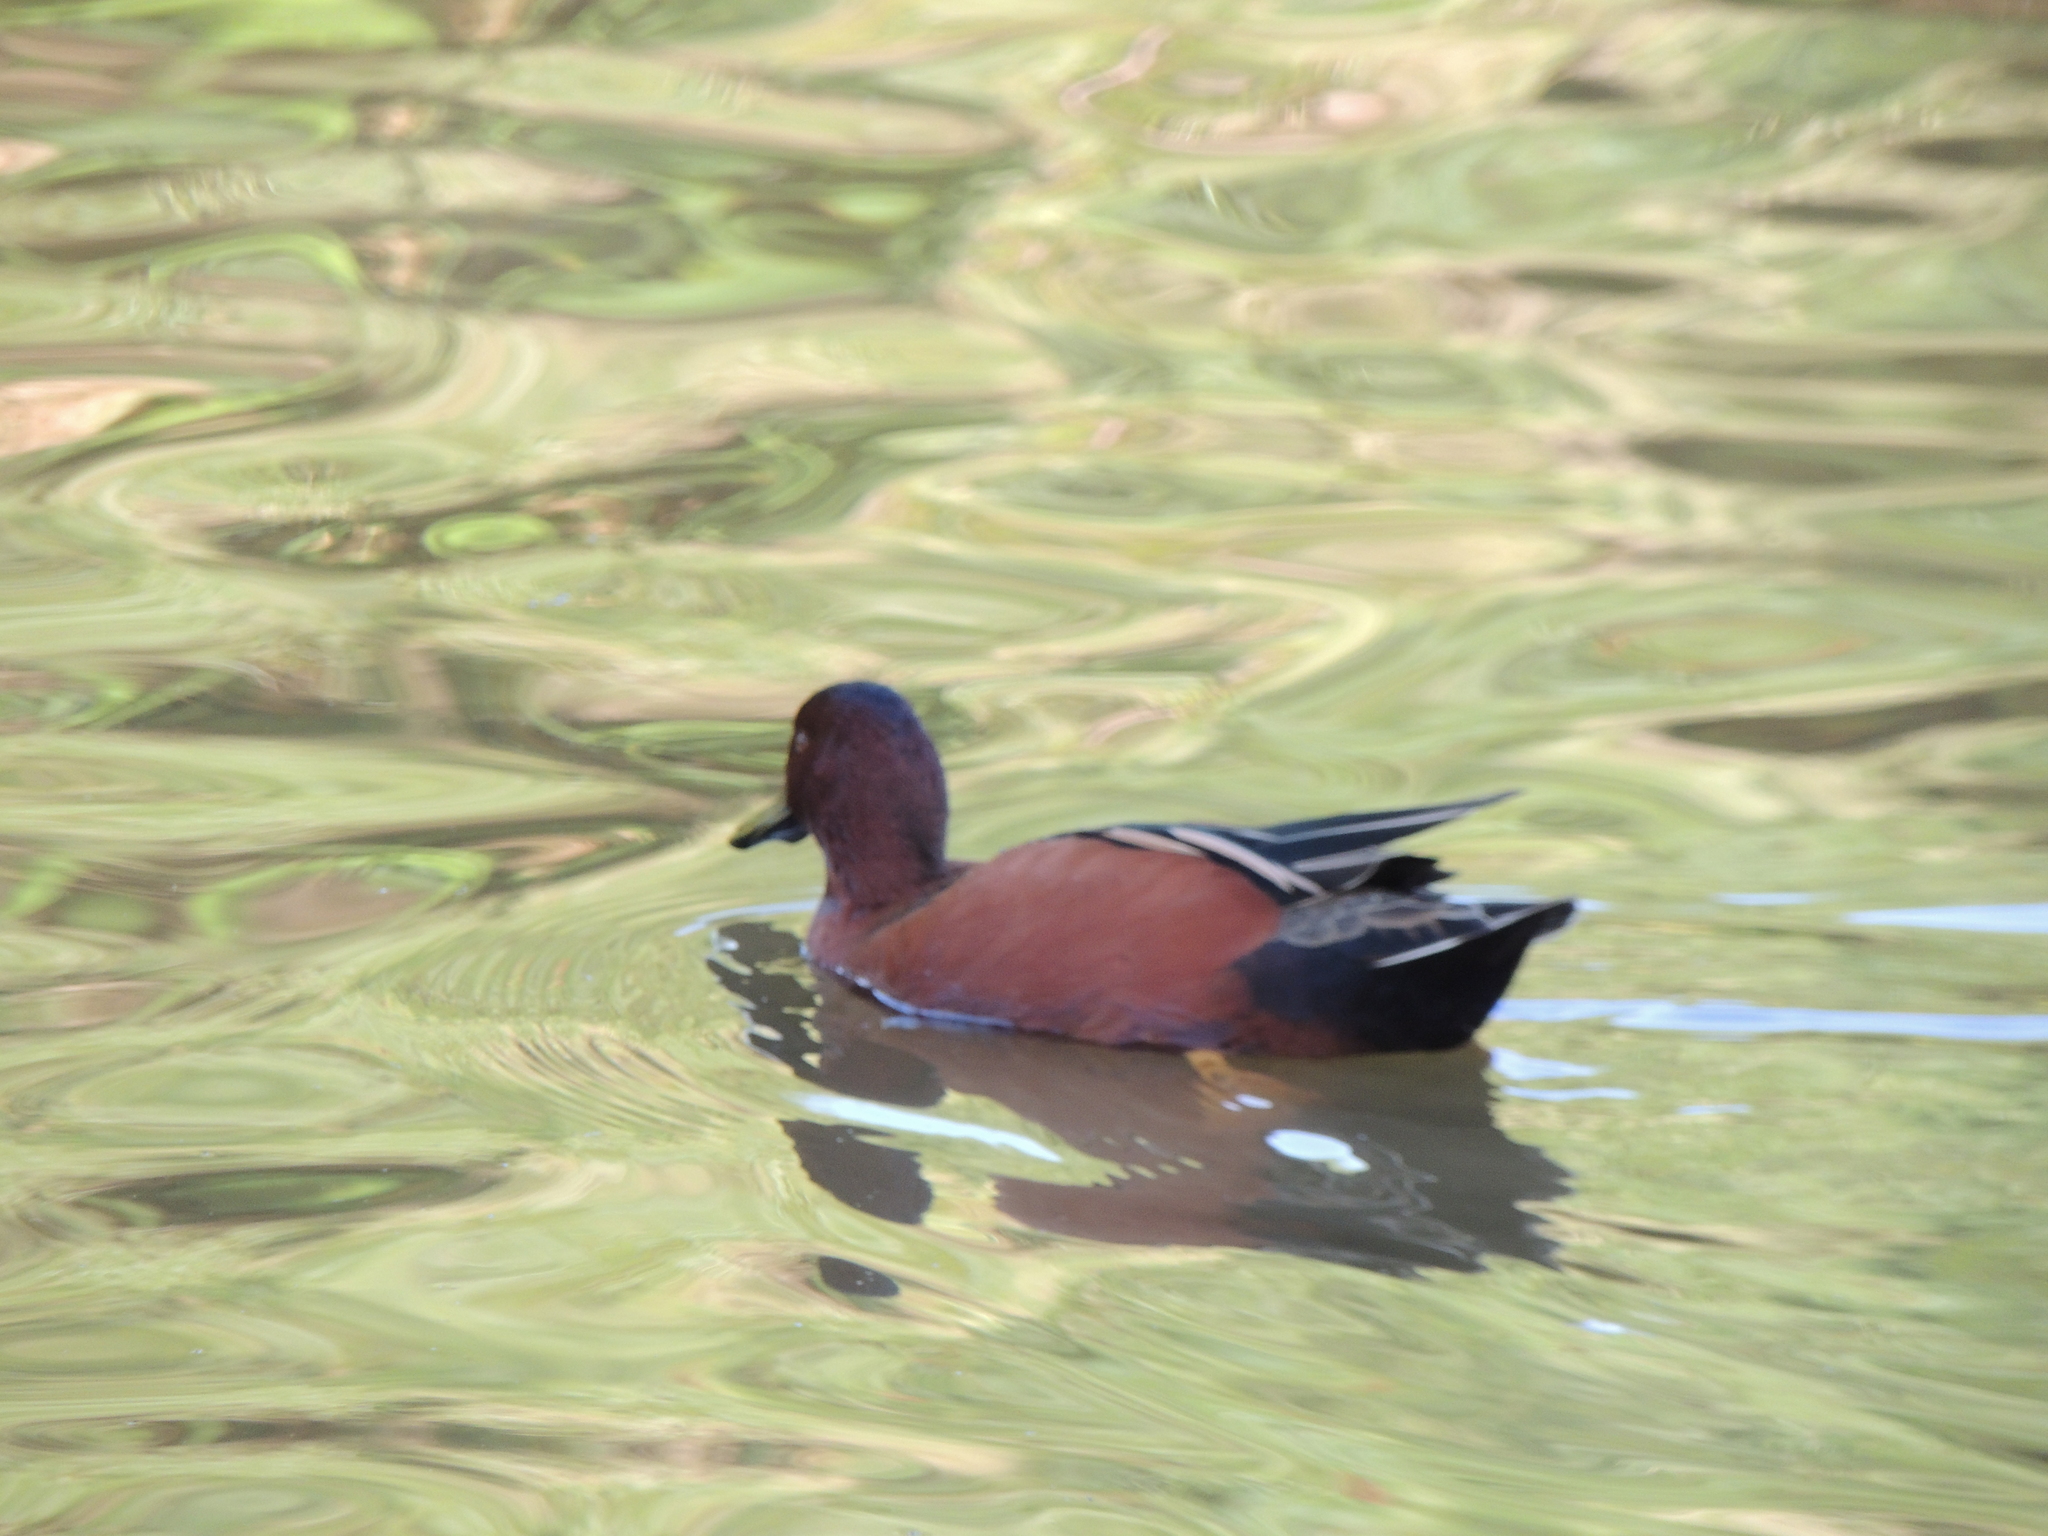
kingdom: Animalia
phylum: Chordata
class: Aves
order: Anseriformes
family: Anatidae
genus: Spatula
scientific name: Spatula cyanoptera
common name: Cinnamon teal
